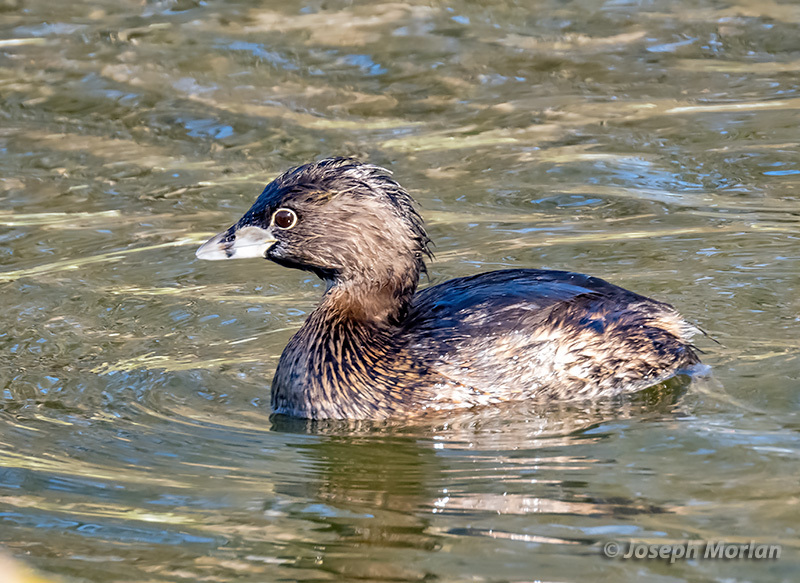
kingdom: Animalia
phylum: Chordata
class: Aves
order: Podicipediformes
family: Podicipedidae
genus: Podilymbus
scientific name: Podilymbus podiceps
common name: Pied-billed grebe
